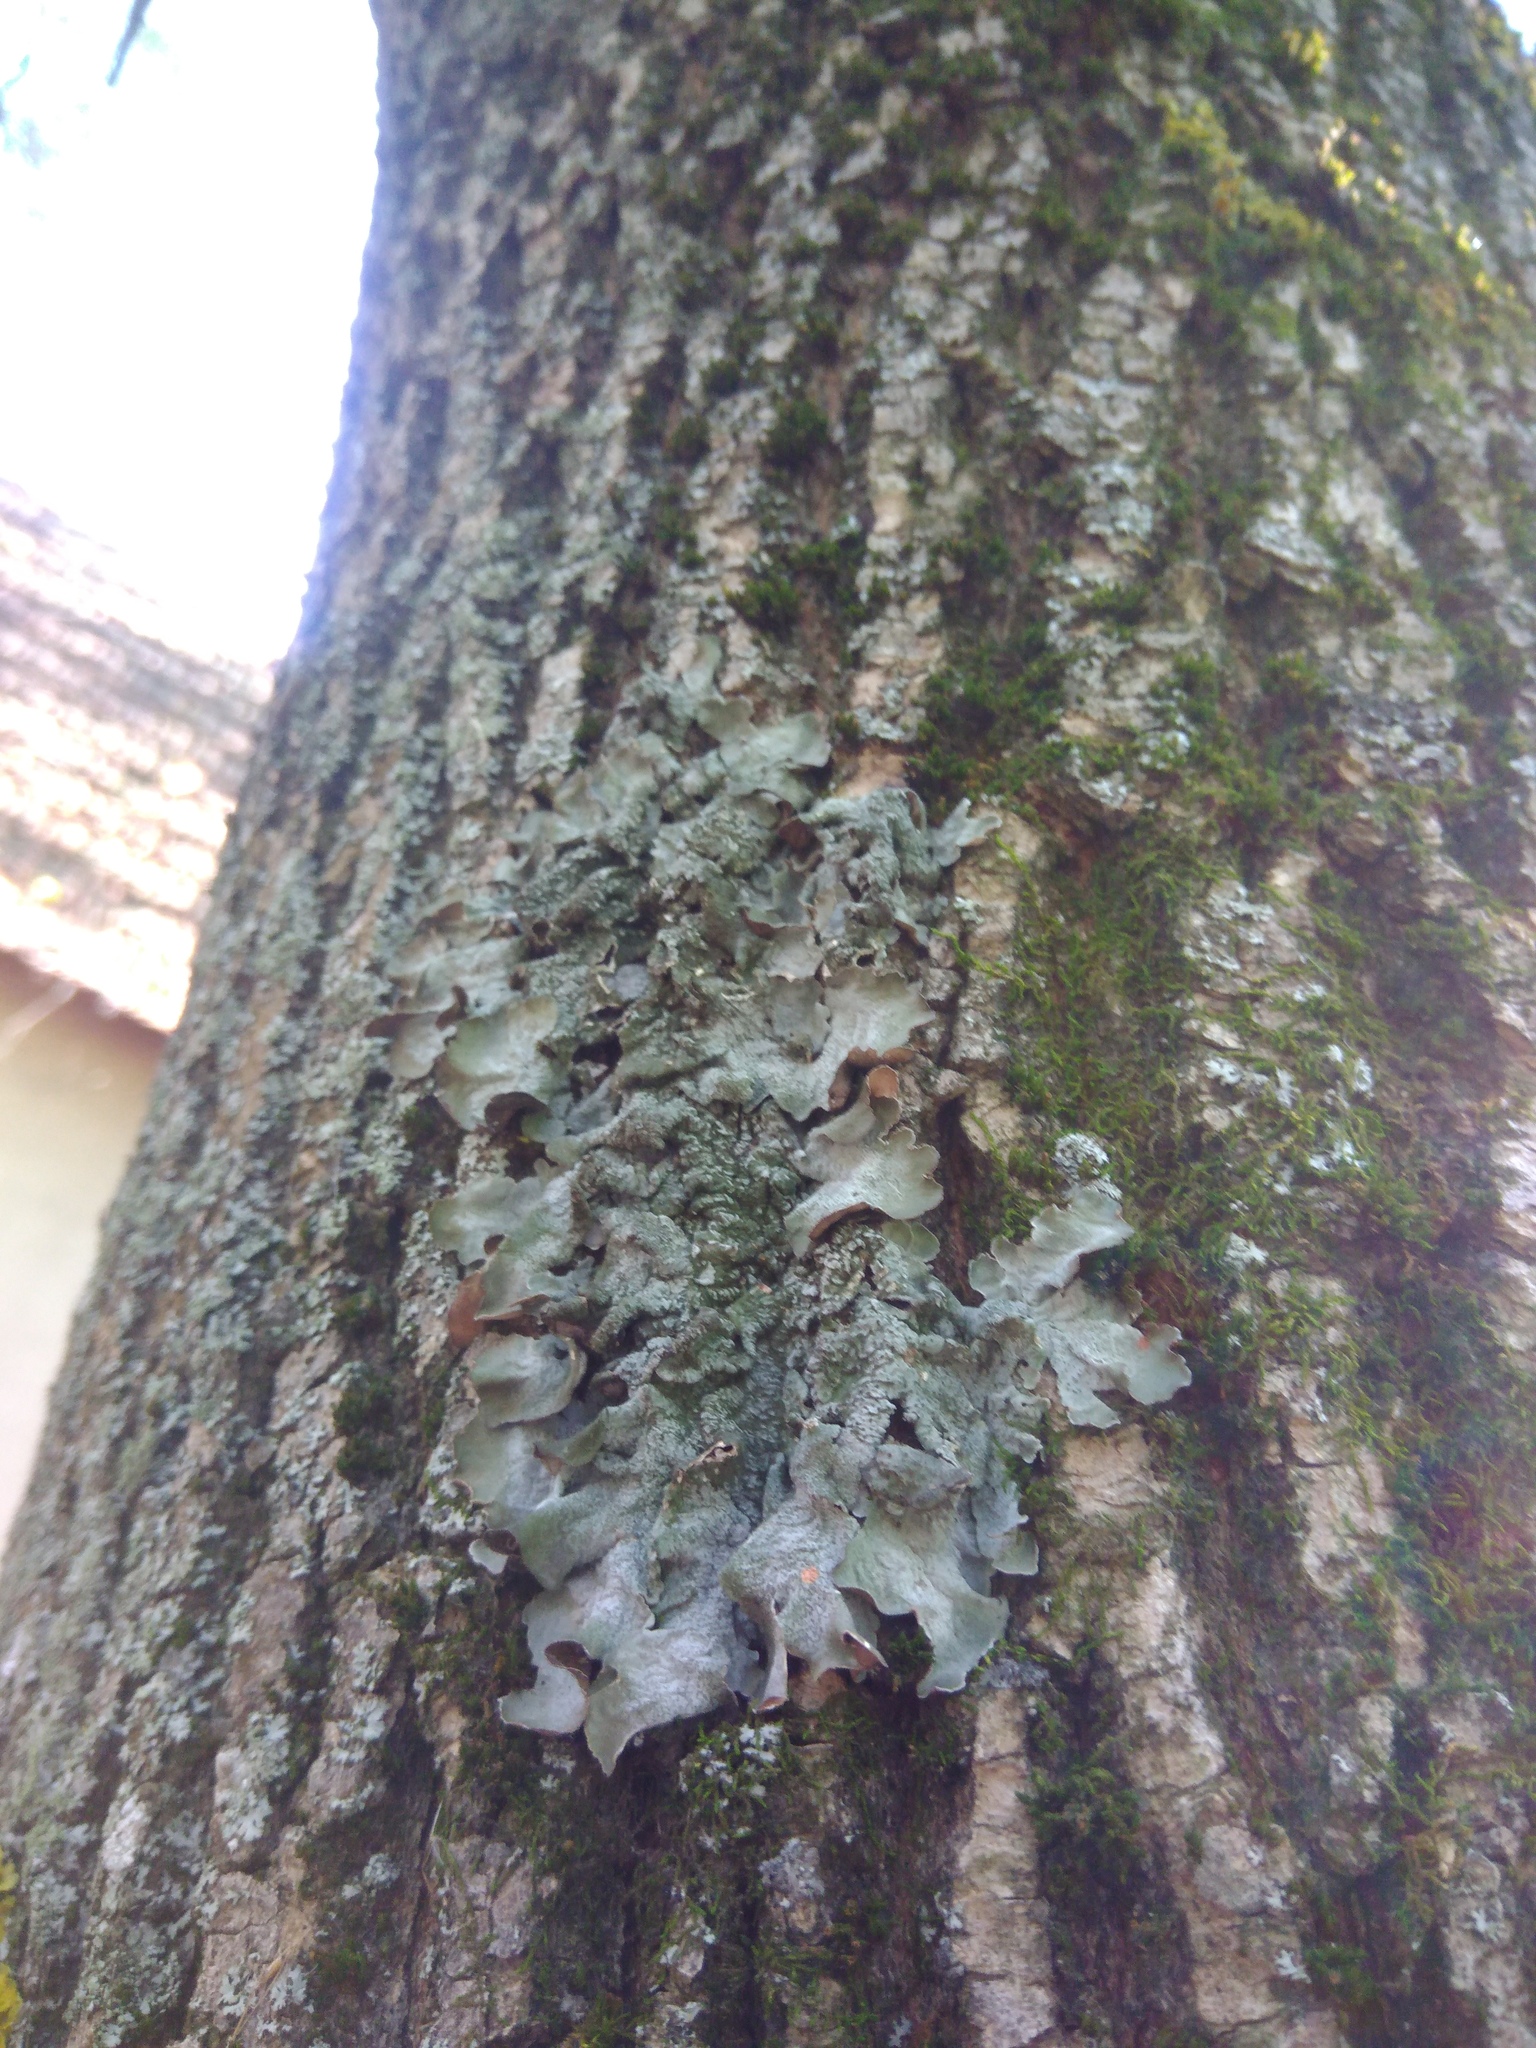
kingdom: Fungi
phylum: Ascomycota
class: Lecanoromycetes
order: Lecanorales
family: Parmeliaceae
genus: Pleurosticta
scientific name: Pleurosticta acetabulum
